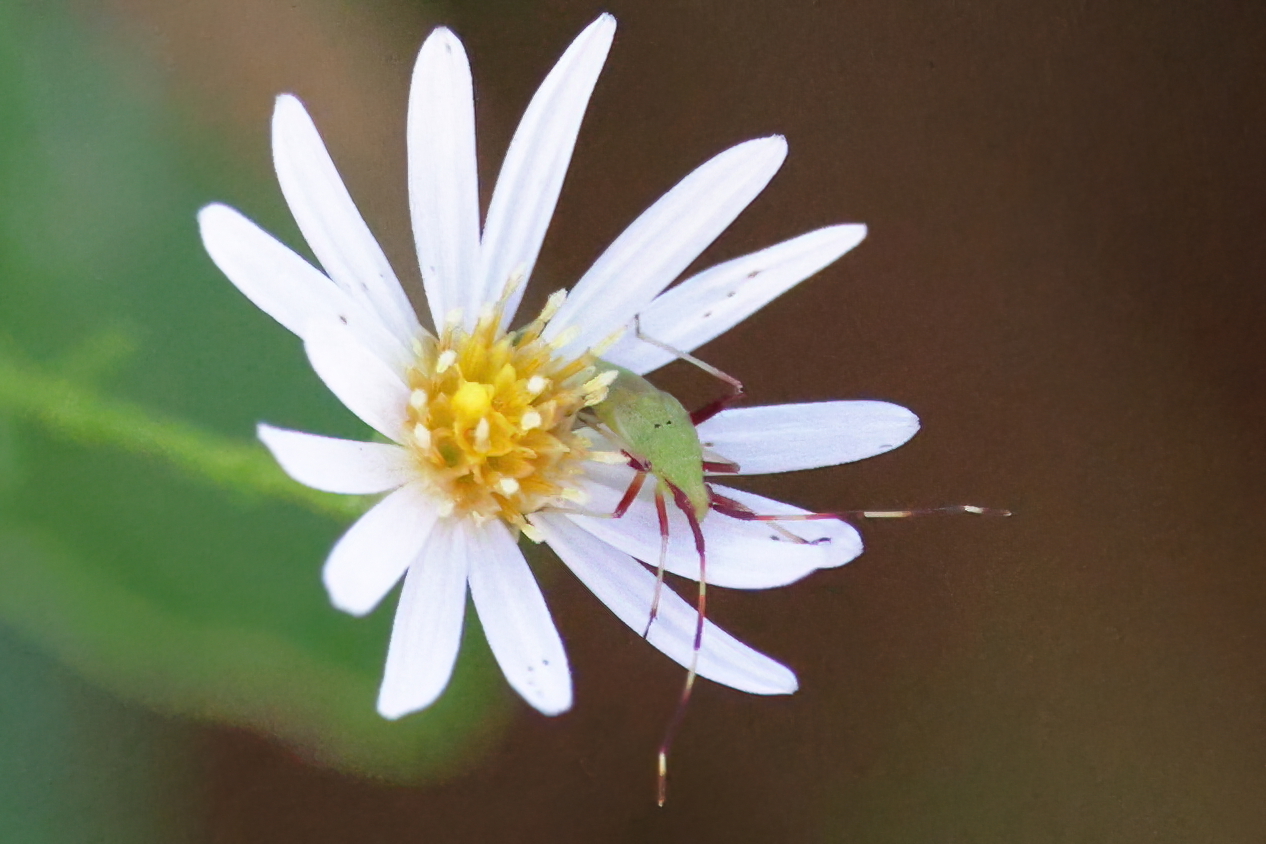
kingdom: Animalia
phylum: Arthropoda
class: Insecta
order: Hemiptera
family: Miridae
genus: Creontiades
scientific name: Creontiades rubrinervis
